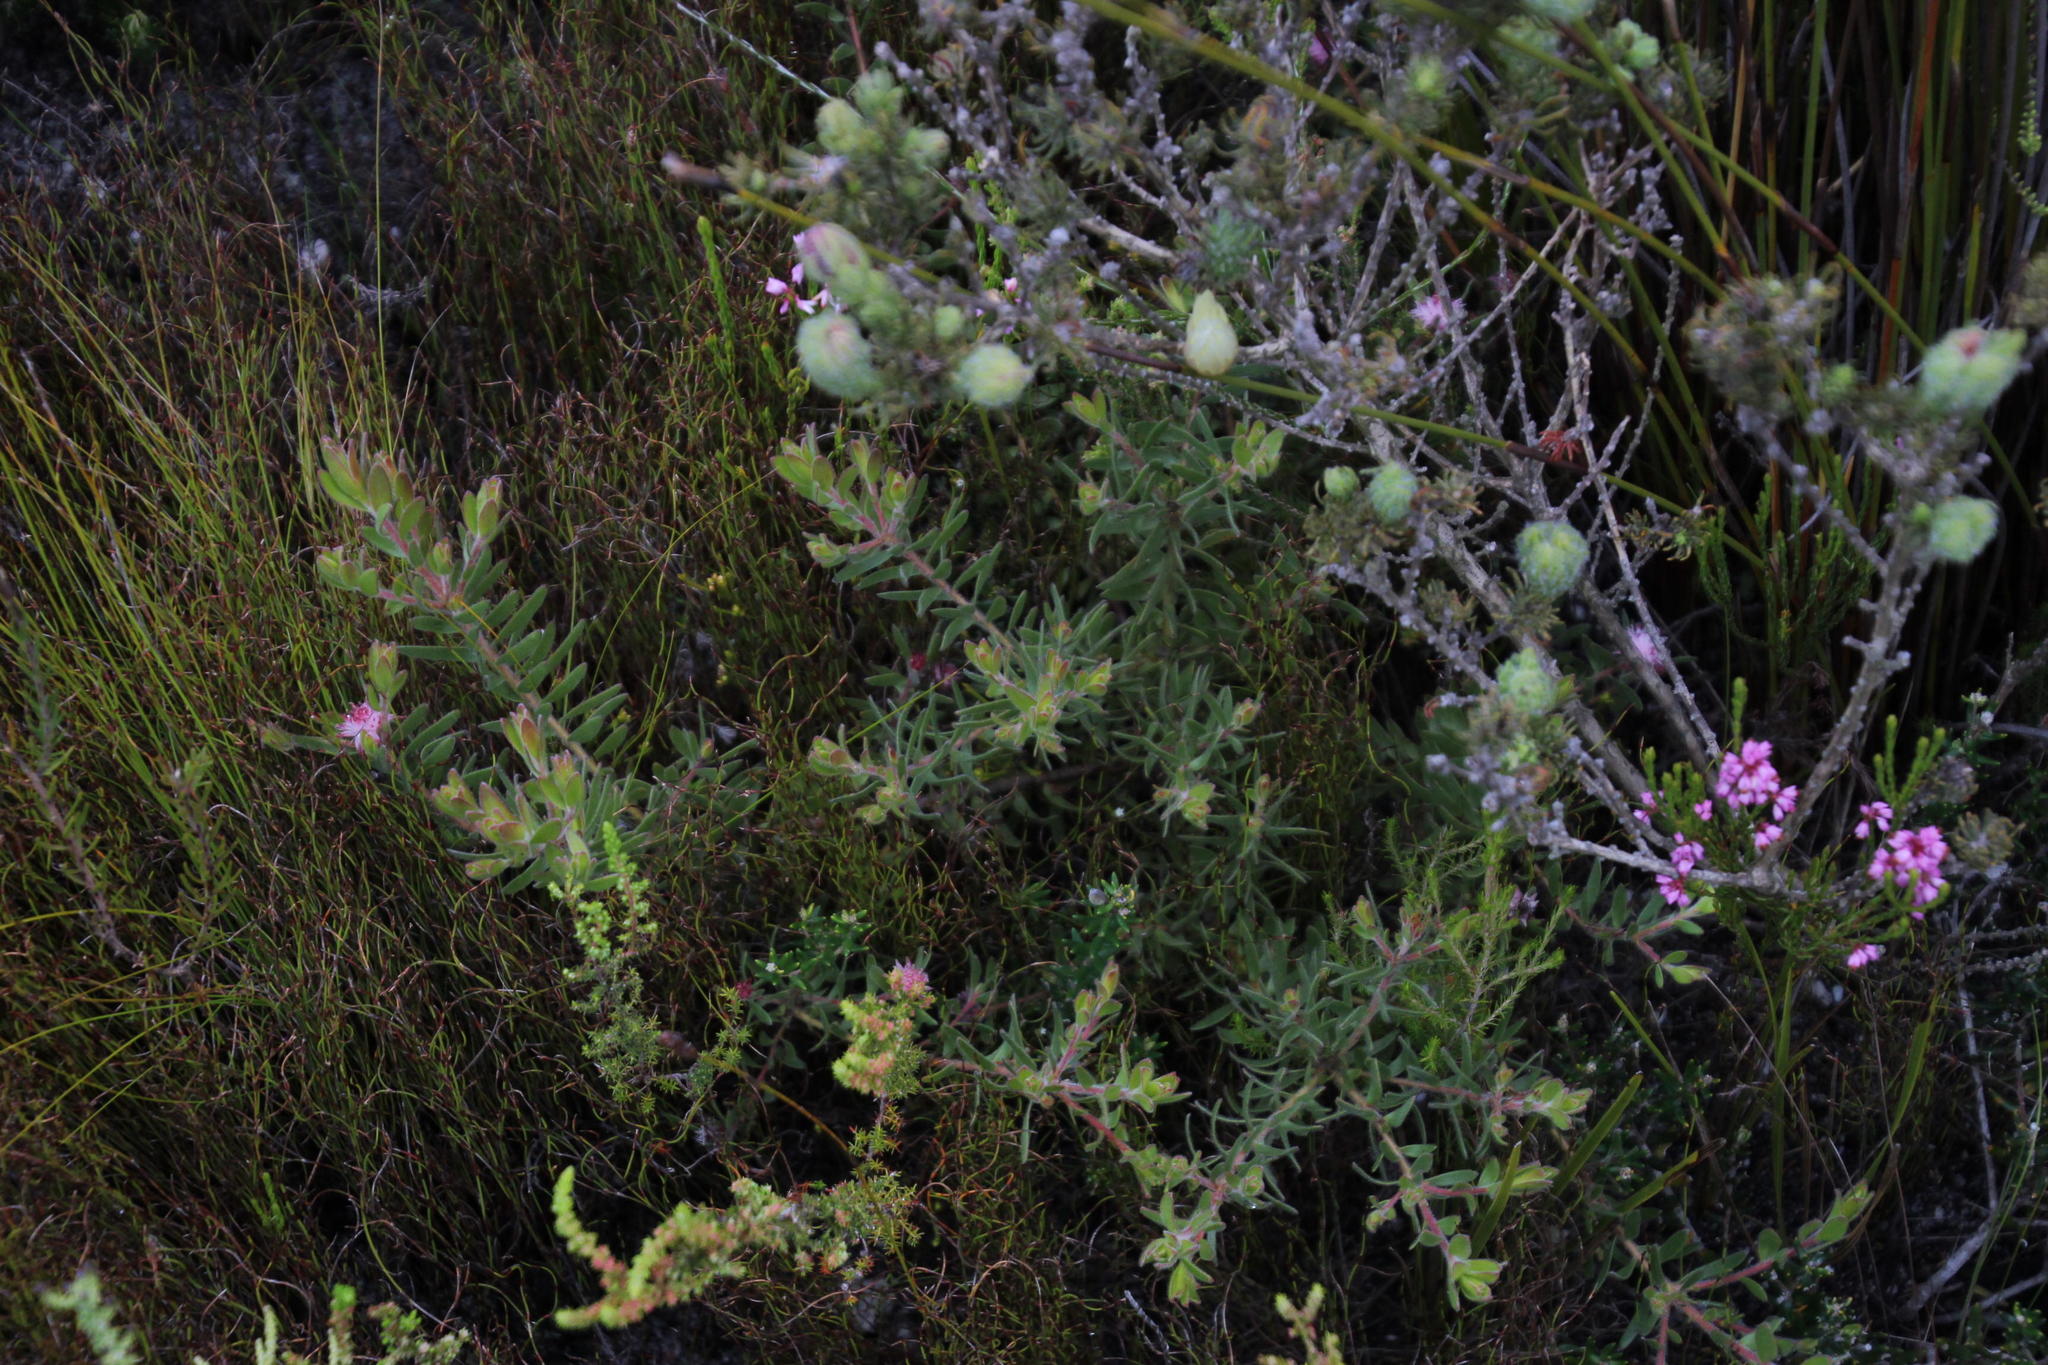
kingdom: Plantae
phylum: Tracheophyta
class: Magnoliopsida
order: Proteales
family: Proteaceae
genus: Diastella
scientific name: Diastella divaricata
